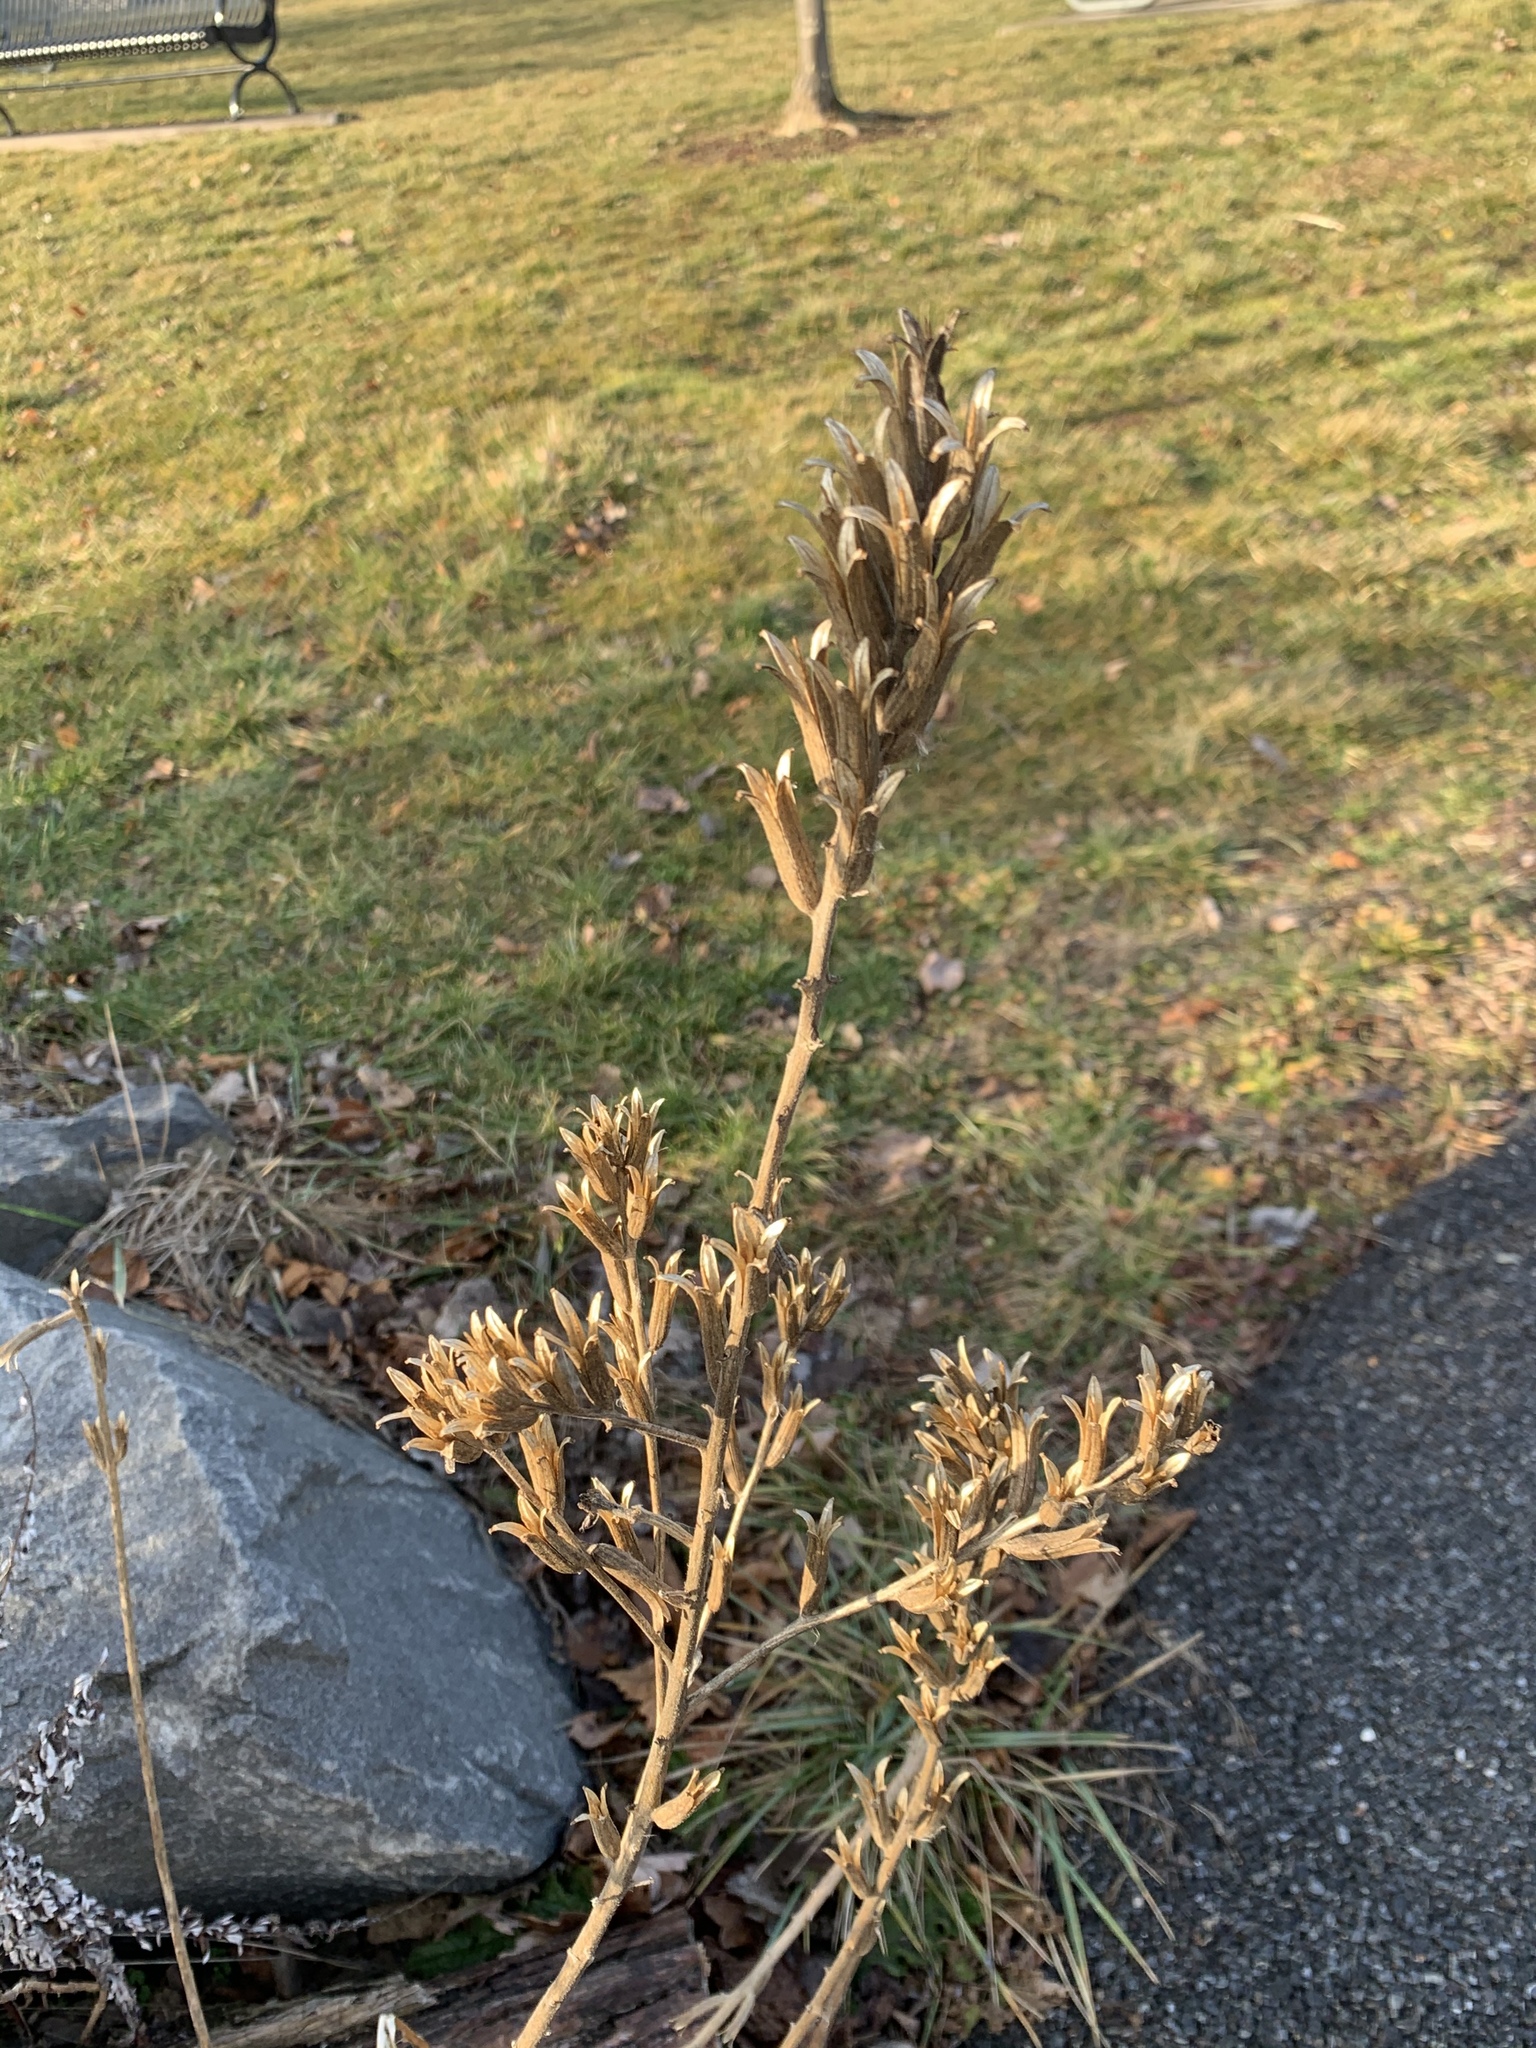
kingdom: Plantae
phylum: Tracheophyta
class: Magnoliopsida
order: Myrtales
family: Onagraceae
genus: Oenothera
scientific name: Oenothera biennis
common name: Common evening-primrose
